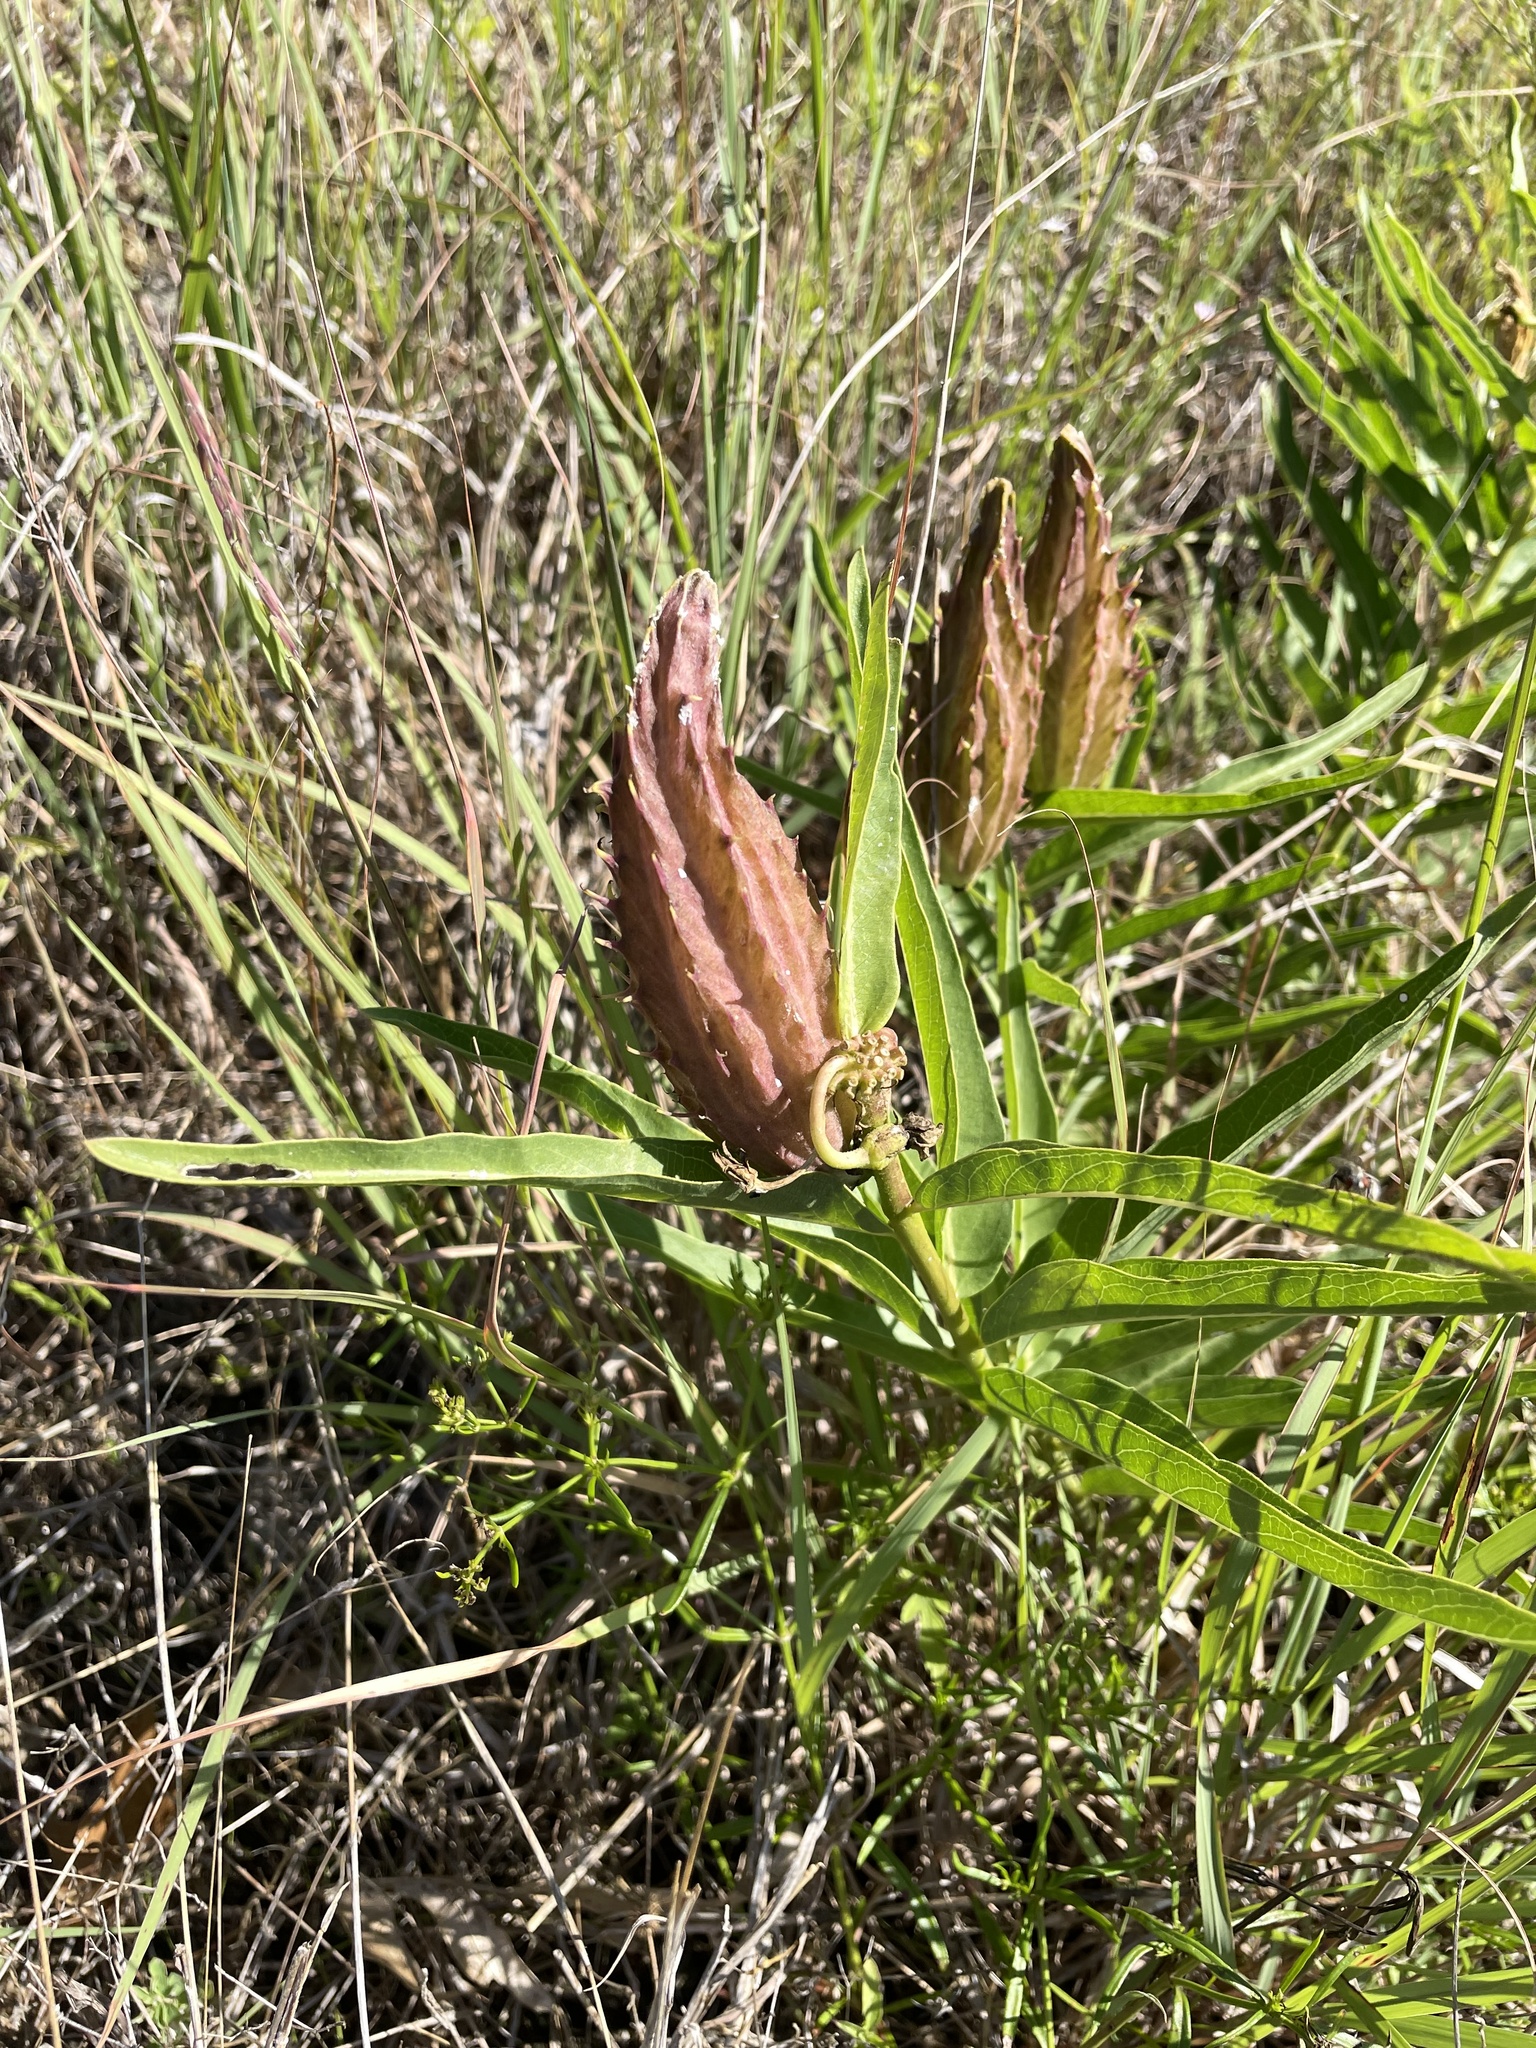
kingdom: Plantae
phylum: Tracheophyta
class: Magnoliopsida
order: Gentianales
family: Apocynaceae
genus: Asclepias
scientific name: Asclepias asperula
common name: Antelope horns
